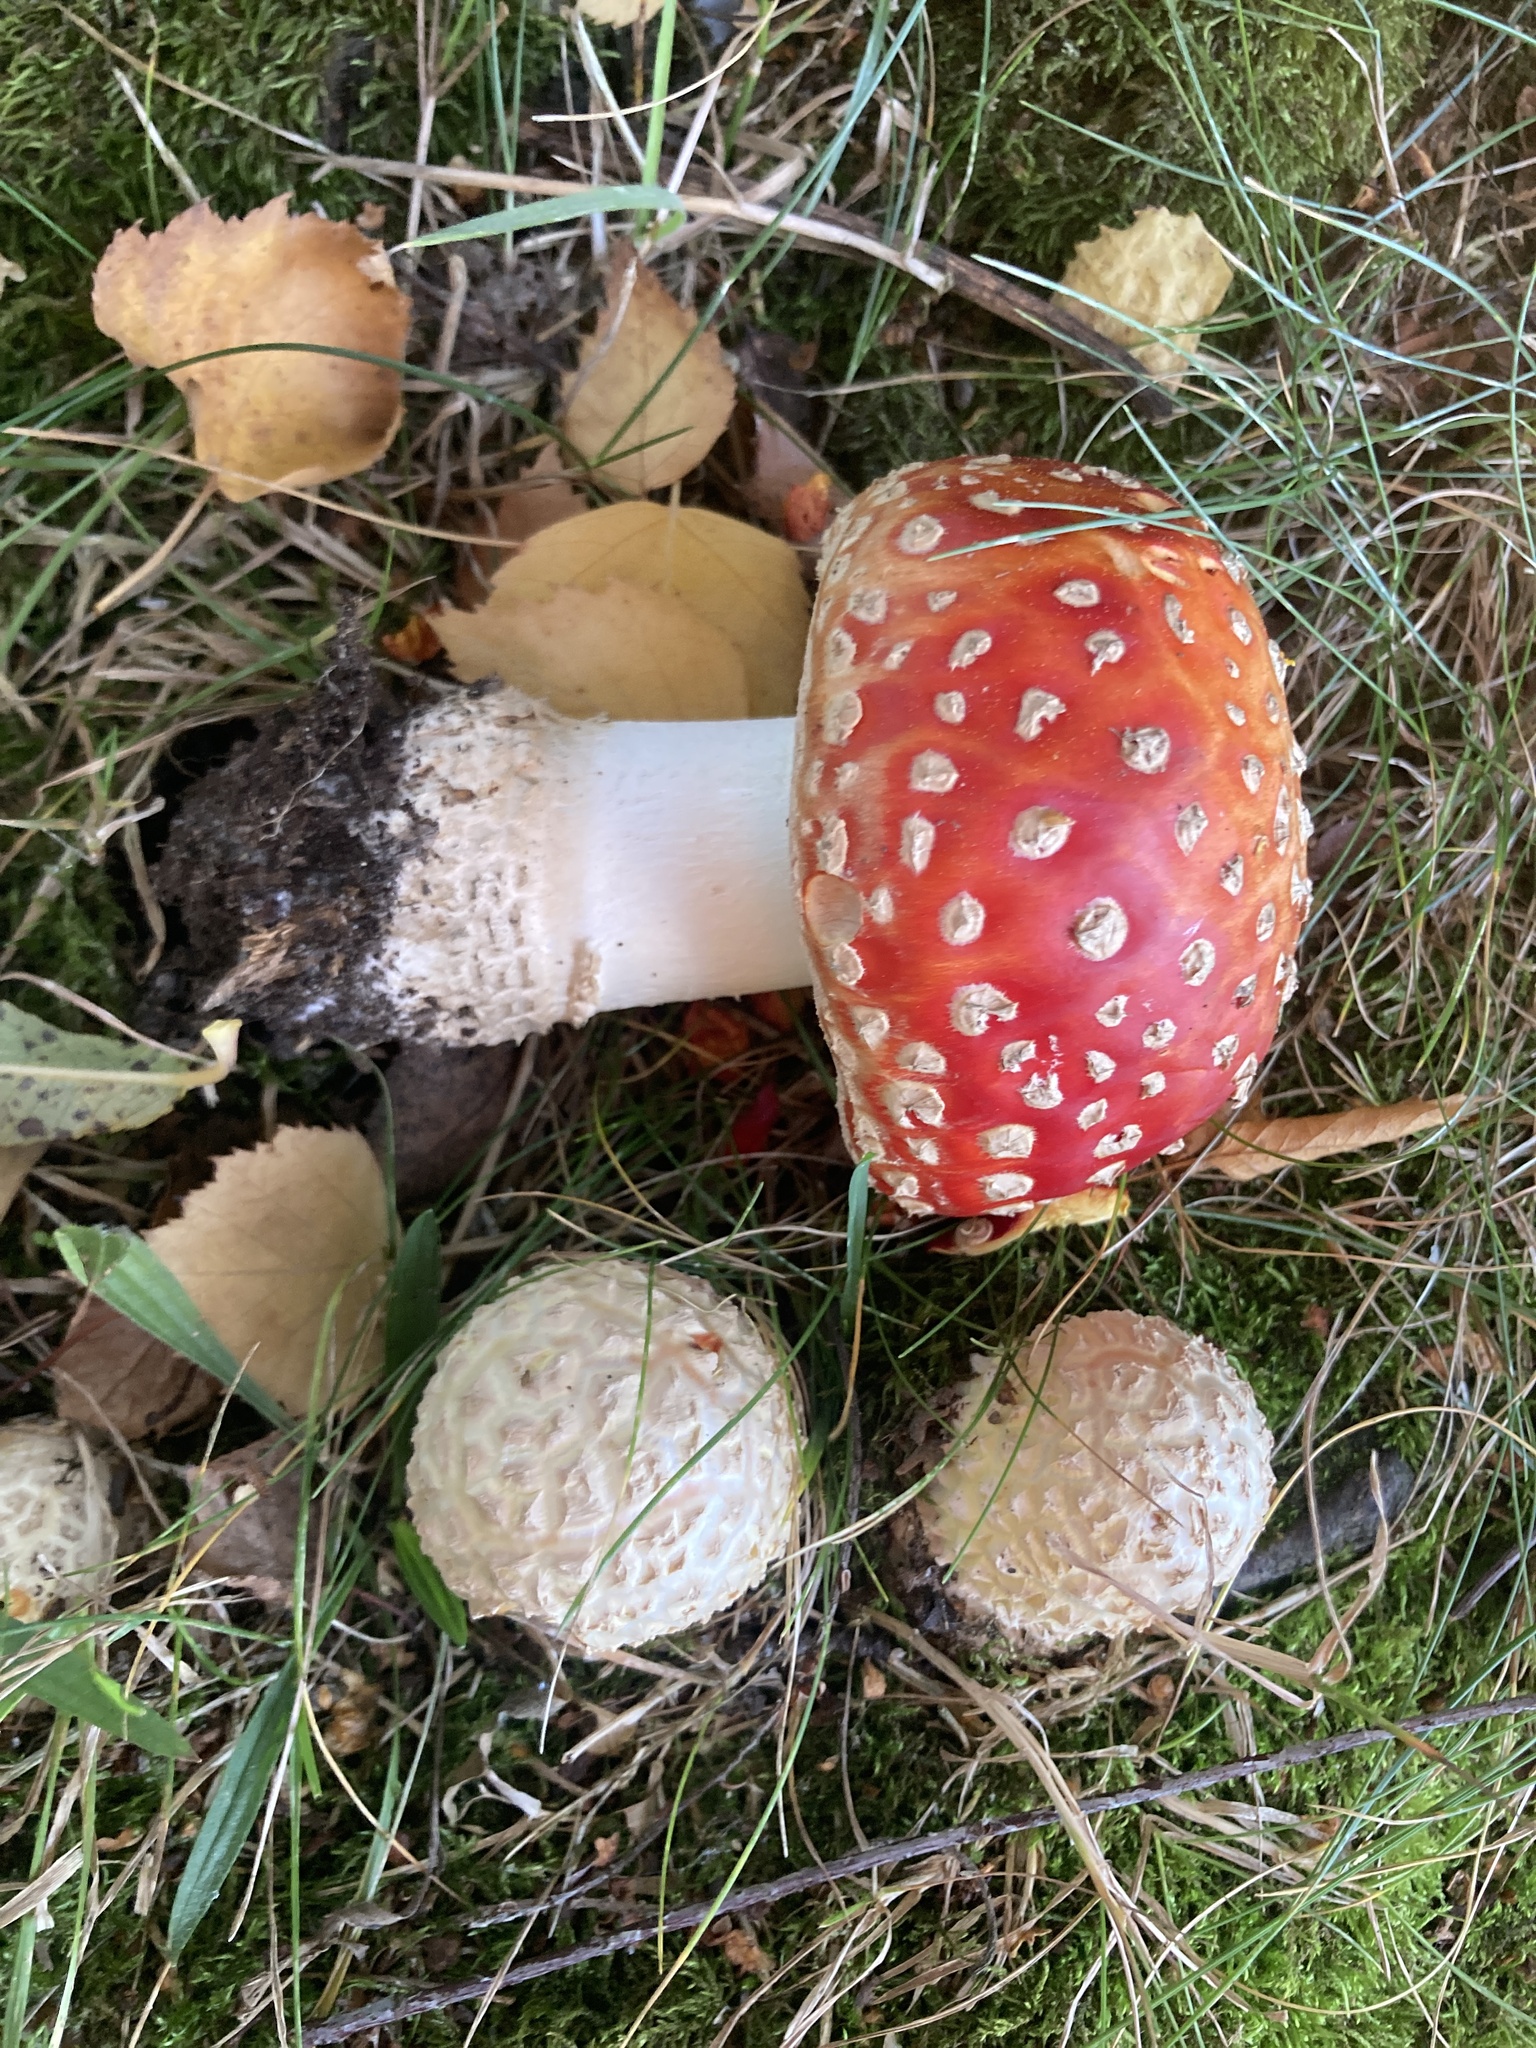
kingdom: Fungi
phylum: Basidiomycota
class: Agaricomycetes
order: Agaricales
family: Amanitaceae
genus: Amanita
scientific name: Amanita muscaria
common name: Fly agaric
